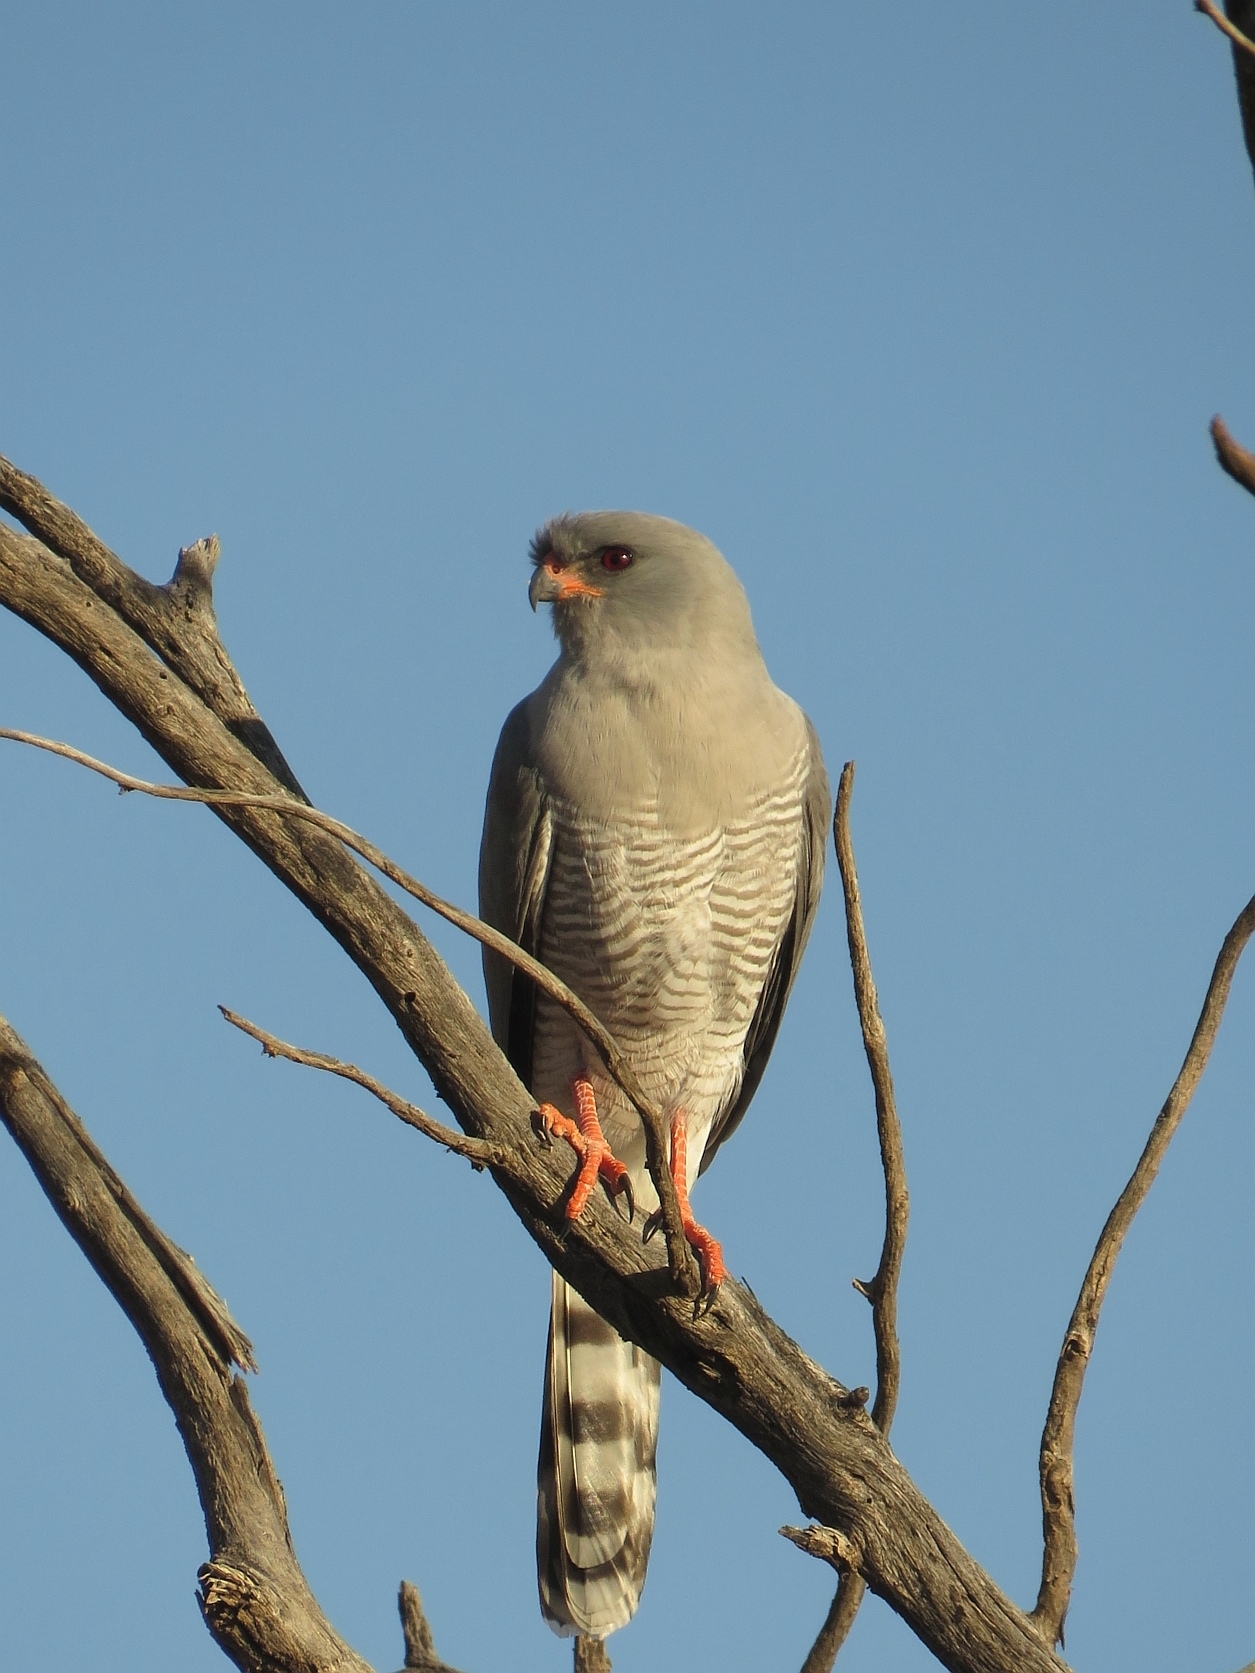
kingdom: Animalia
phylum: Chordata
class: Aves
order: Accipitriformes
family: Accipitridae
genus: Micronisus
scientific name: Micronisus gabar
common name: Gabar goshawk
